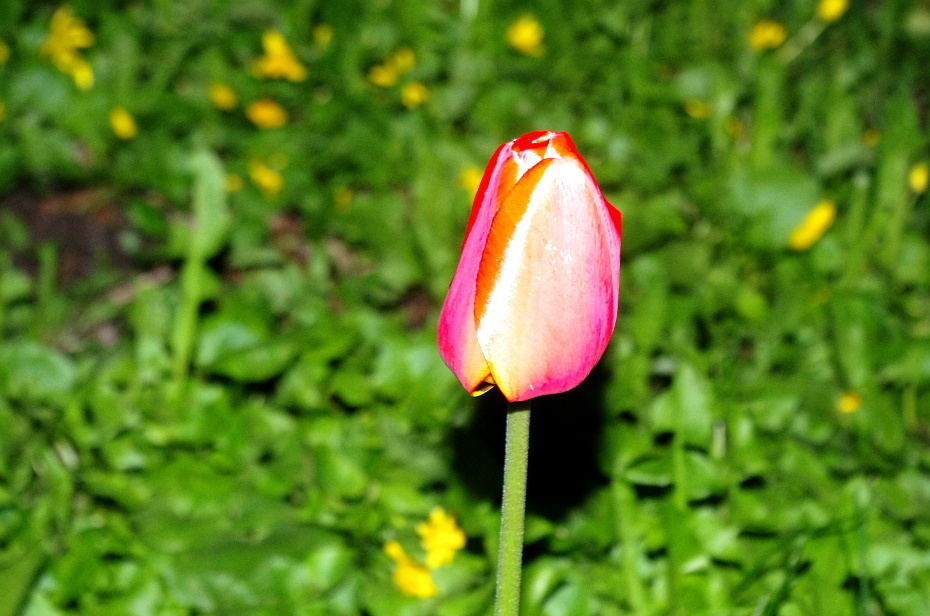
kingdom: Plantae
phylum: Tracheophyta
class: Liliopsida
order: Liliales
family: Liliaceae
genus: Tulipa
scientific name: Tulipa gesneriana
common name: Garden tulip
